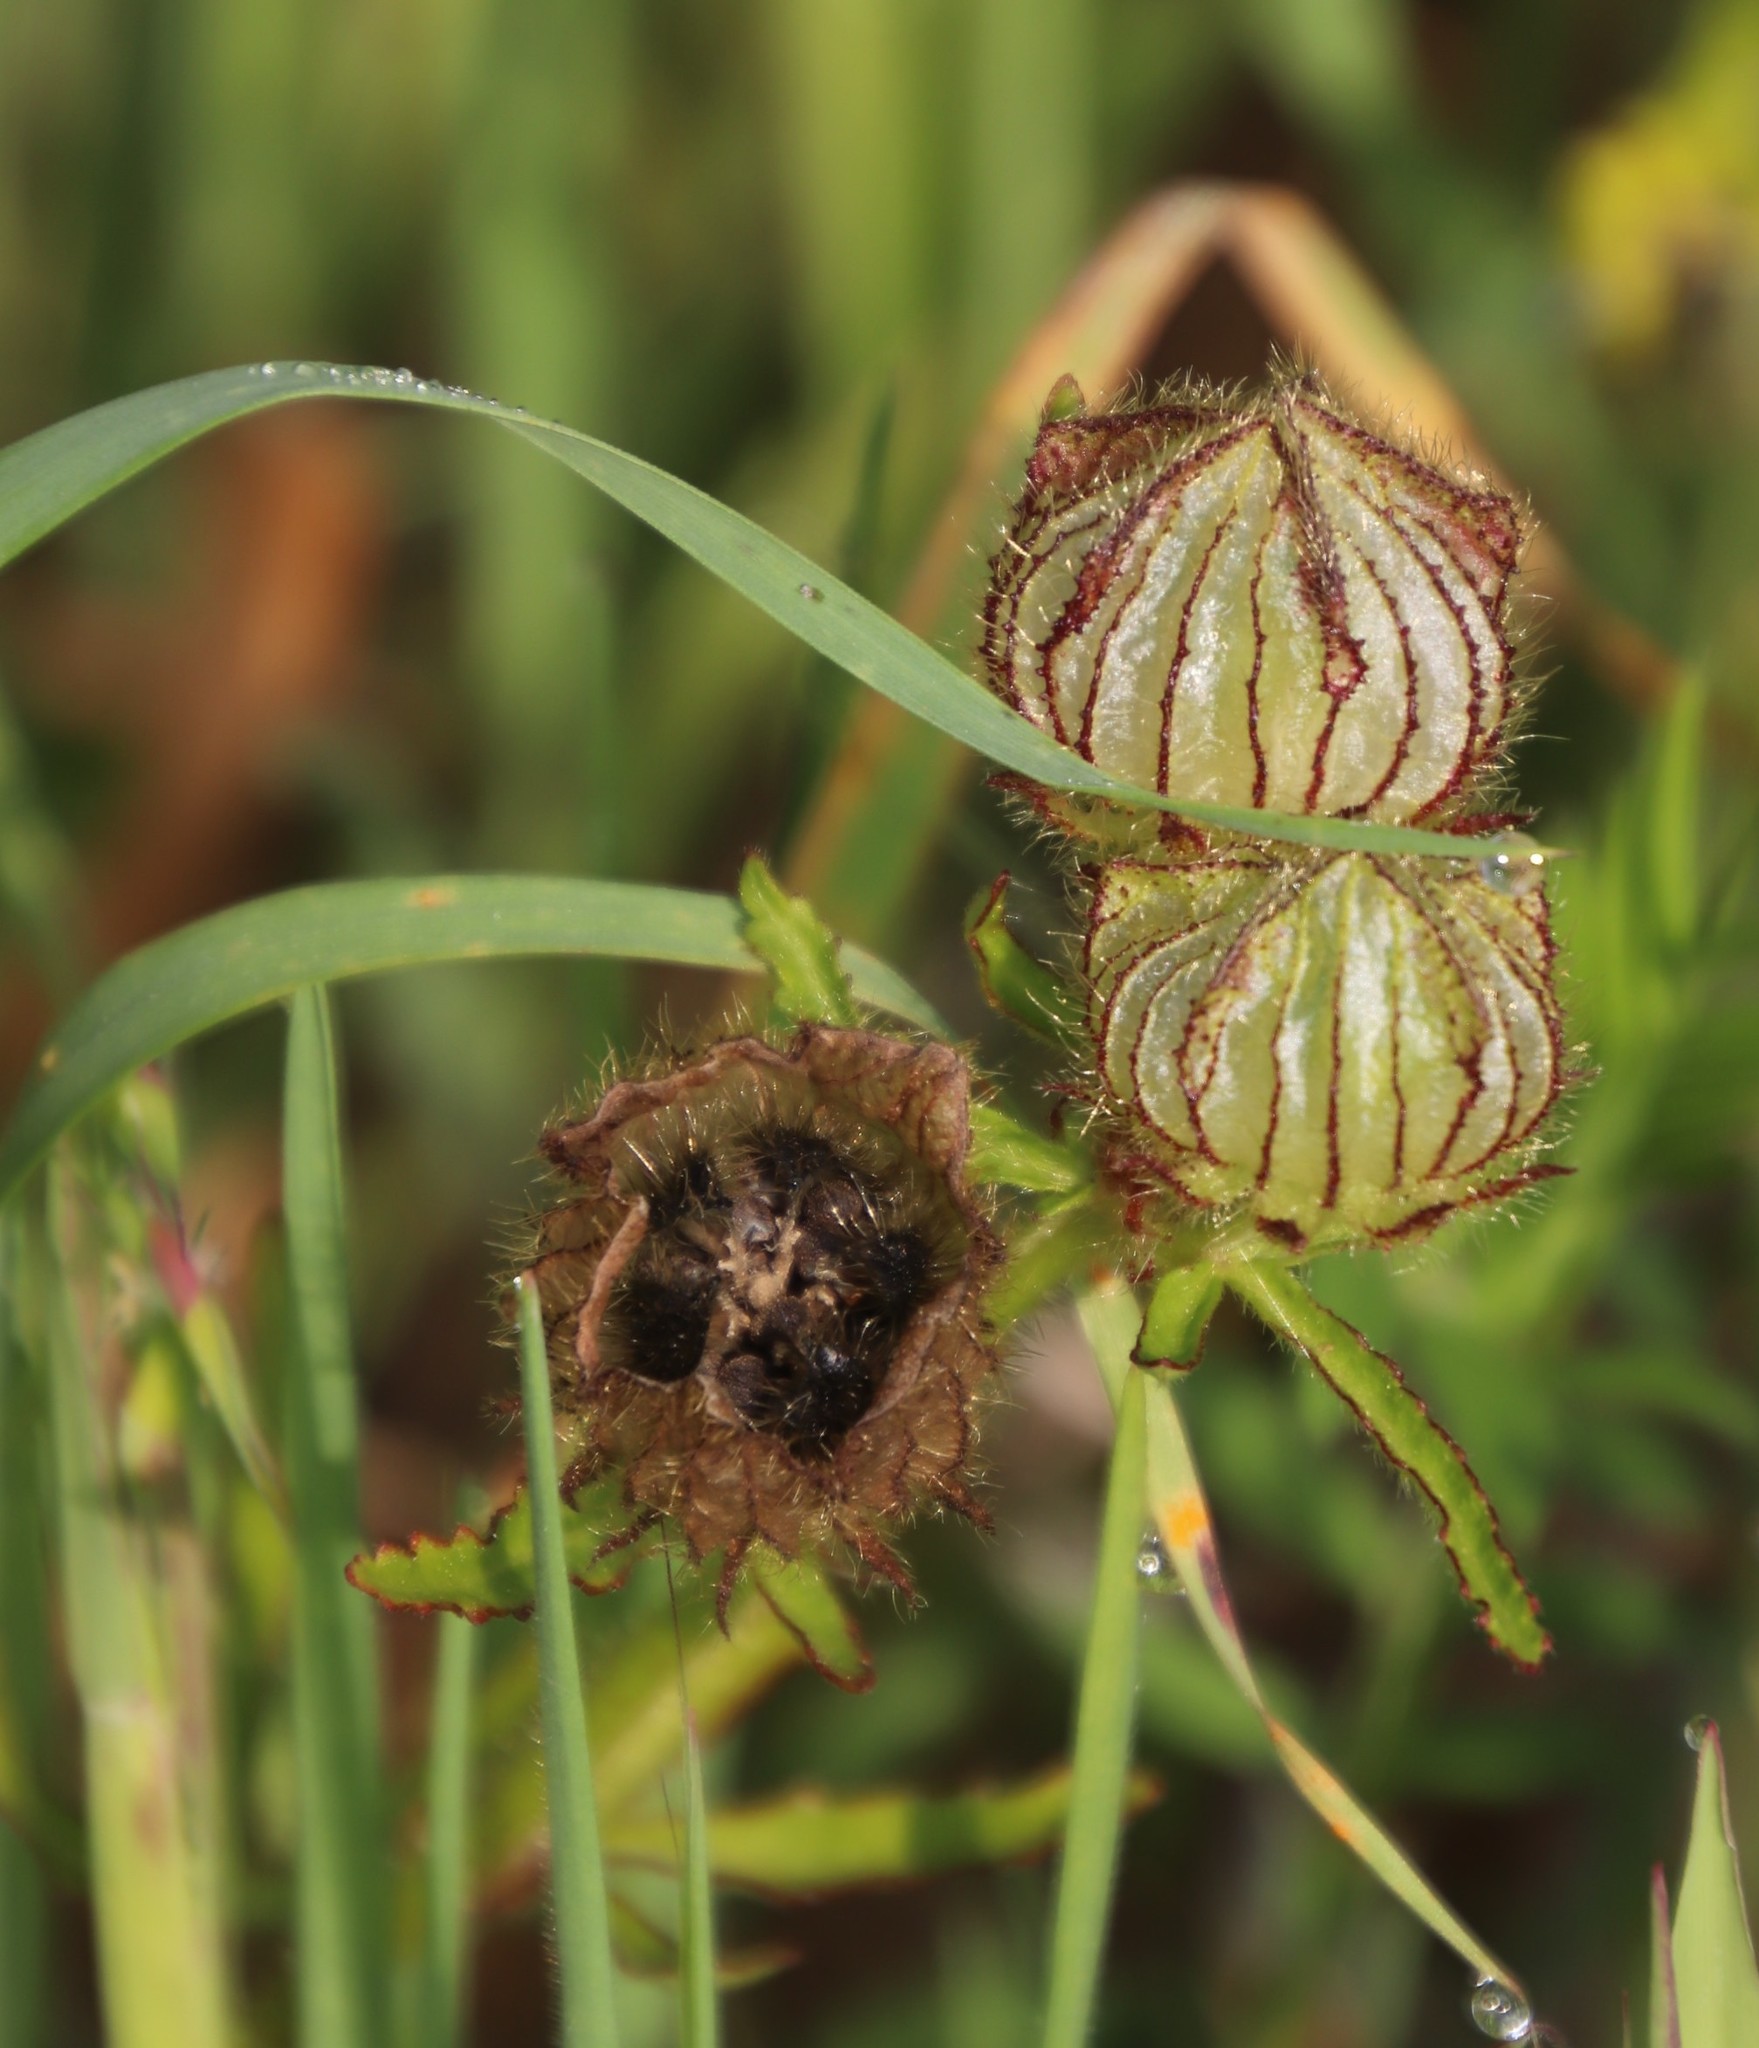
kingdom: Plantae
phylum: Tracheophyta
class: Magnoliopsida
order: Malvales
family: Malvaceae
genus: Hibiscus
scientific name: Hibiscus trionum
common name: Bladder ketmia
